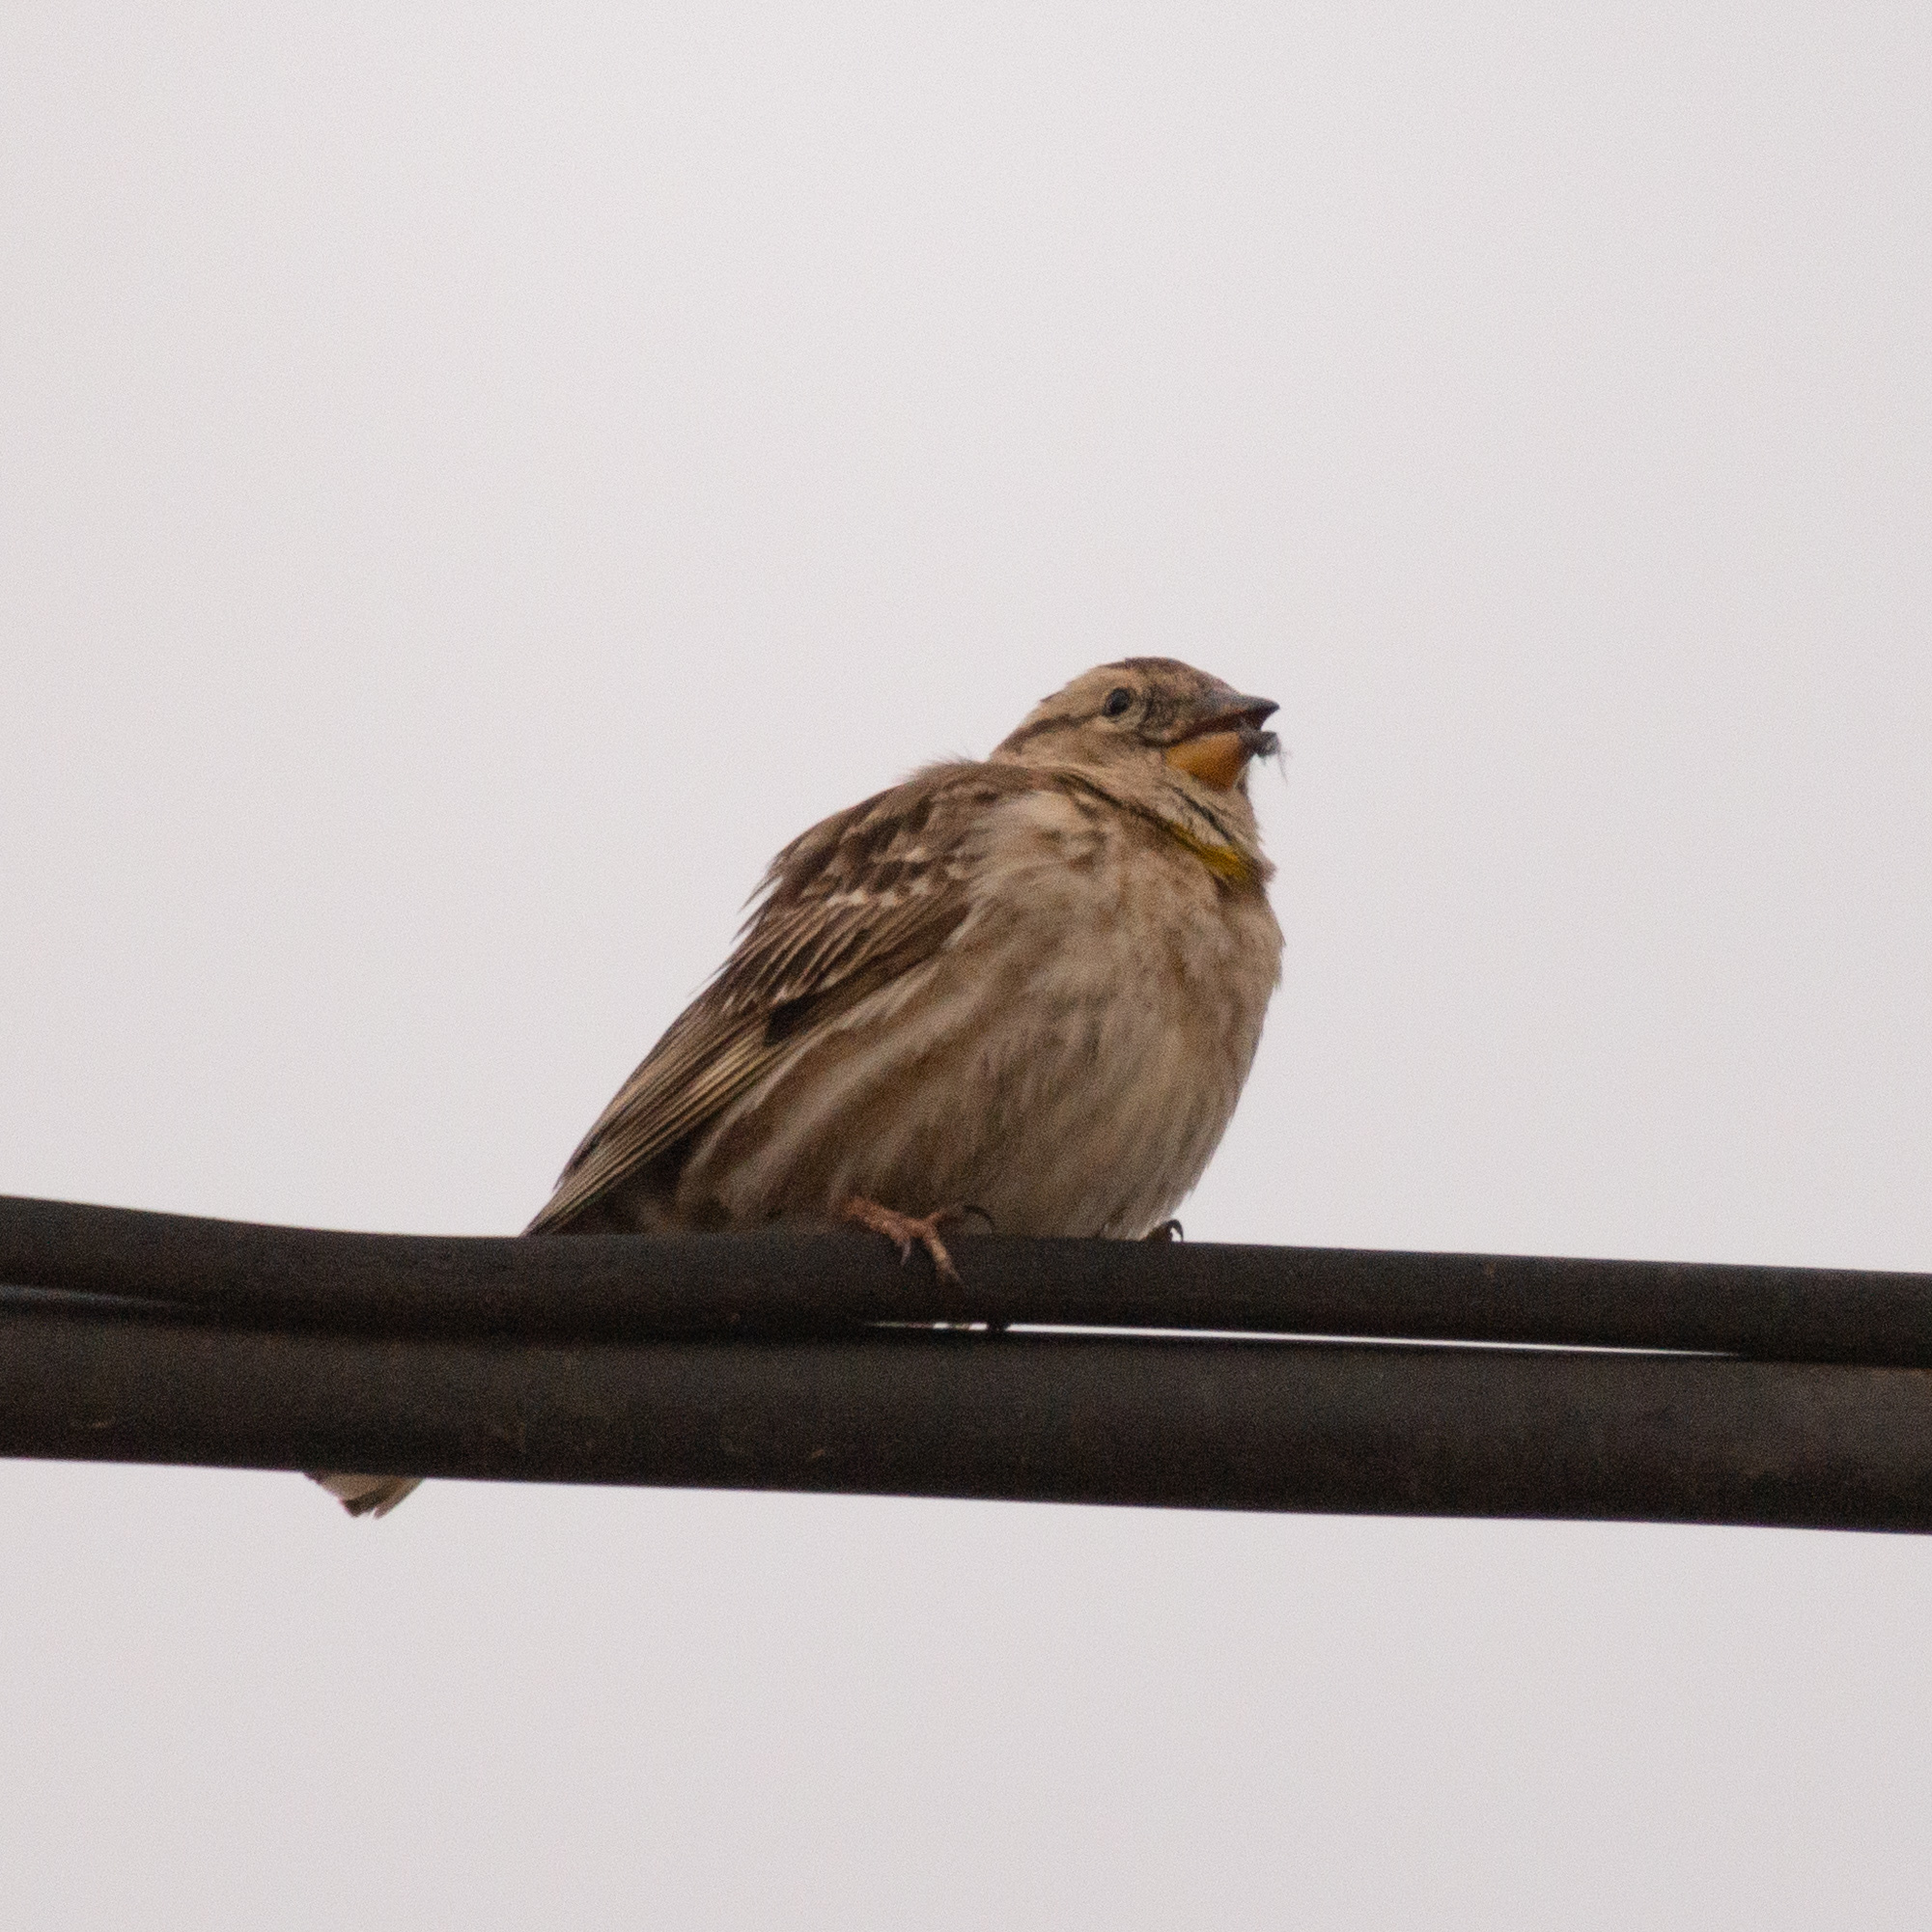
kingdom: Animalia
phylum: Chordata
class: Aves
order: Passeriformes
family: Passeridae
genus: Petronia
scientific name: Petronia petronia
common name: Rock sparrow
